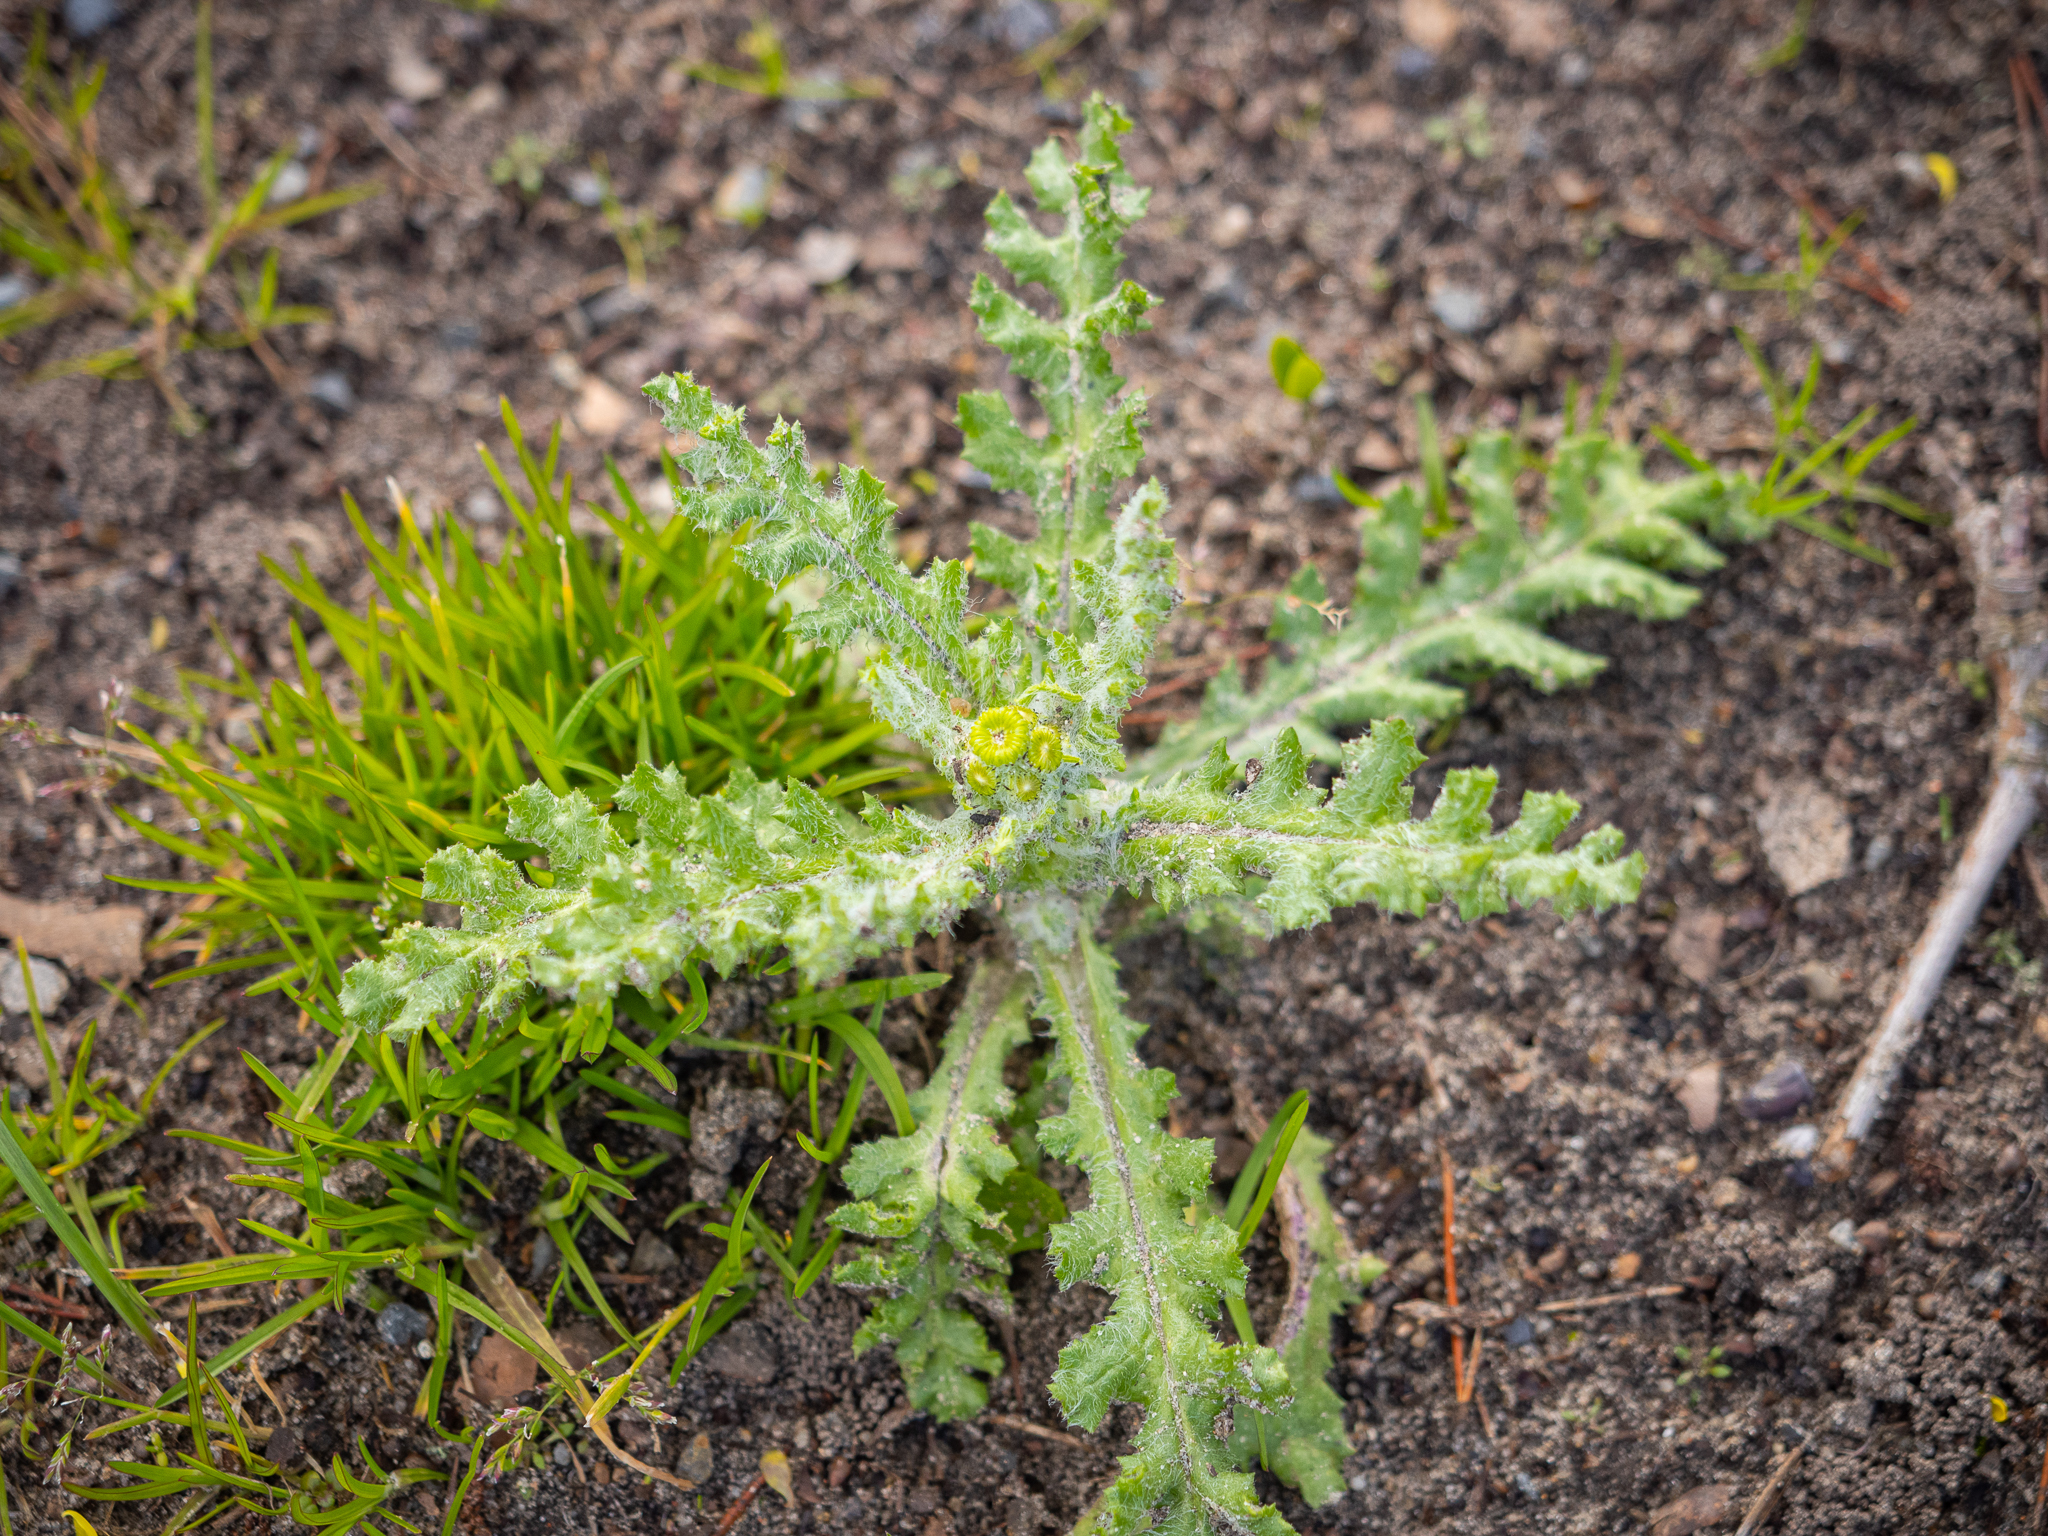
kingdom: Plantae
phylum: Tracheophyta
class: Magnoliopsida
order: Asterales
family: Asteraceae
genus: Senecio
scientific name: Senecio vernalis
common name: Eastern groundsel
